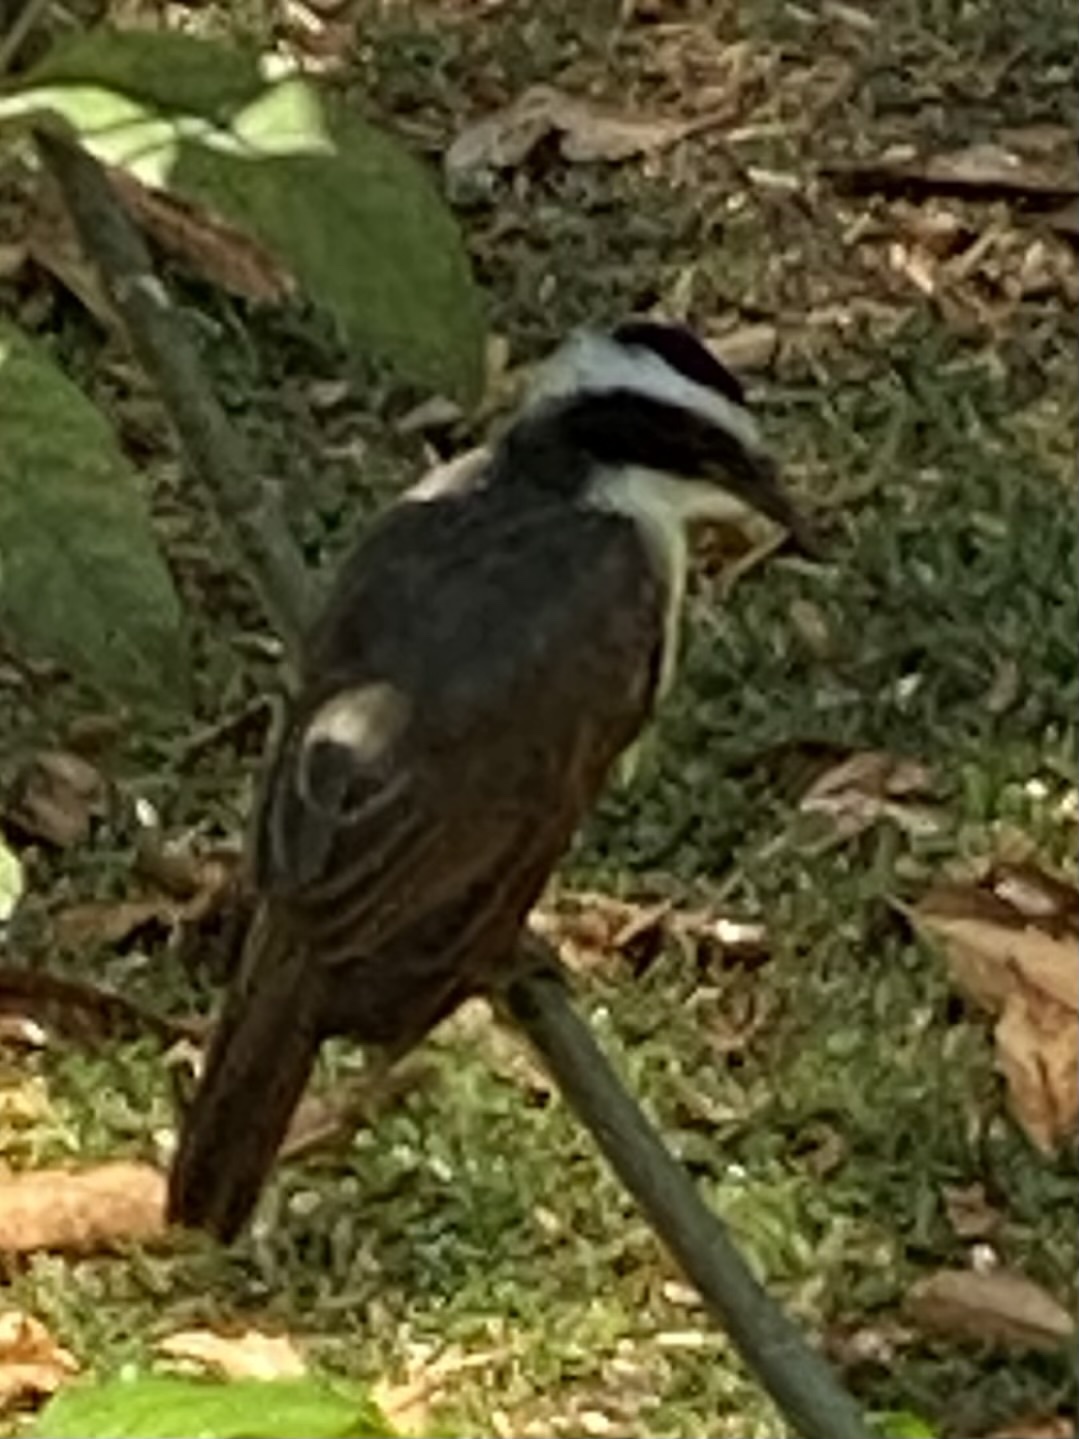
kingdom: Animalia
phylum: Chordata
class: Aves
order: Passeriformes
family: Tyrannidae
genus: Pitangus
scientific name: Pitangus sulphuratus
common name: Great kiskadee
